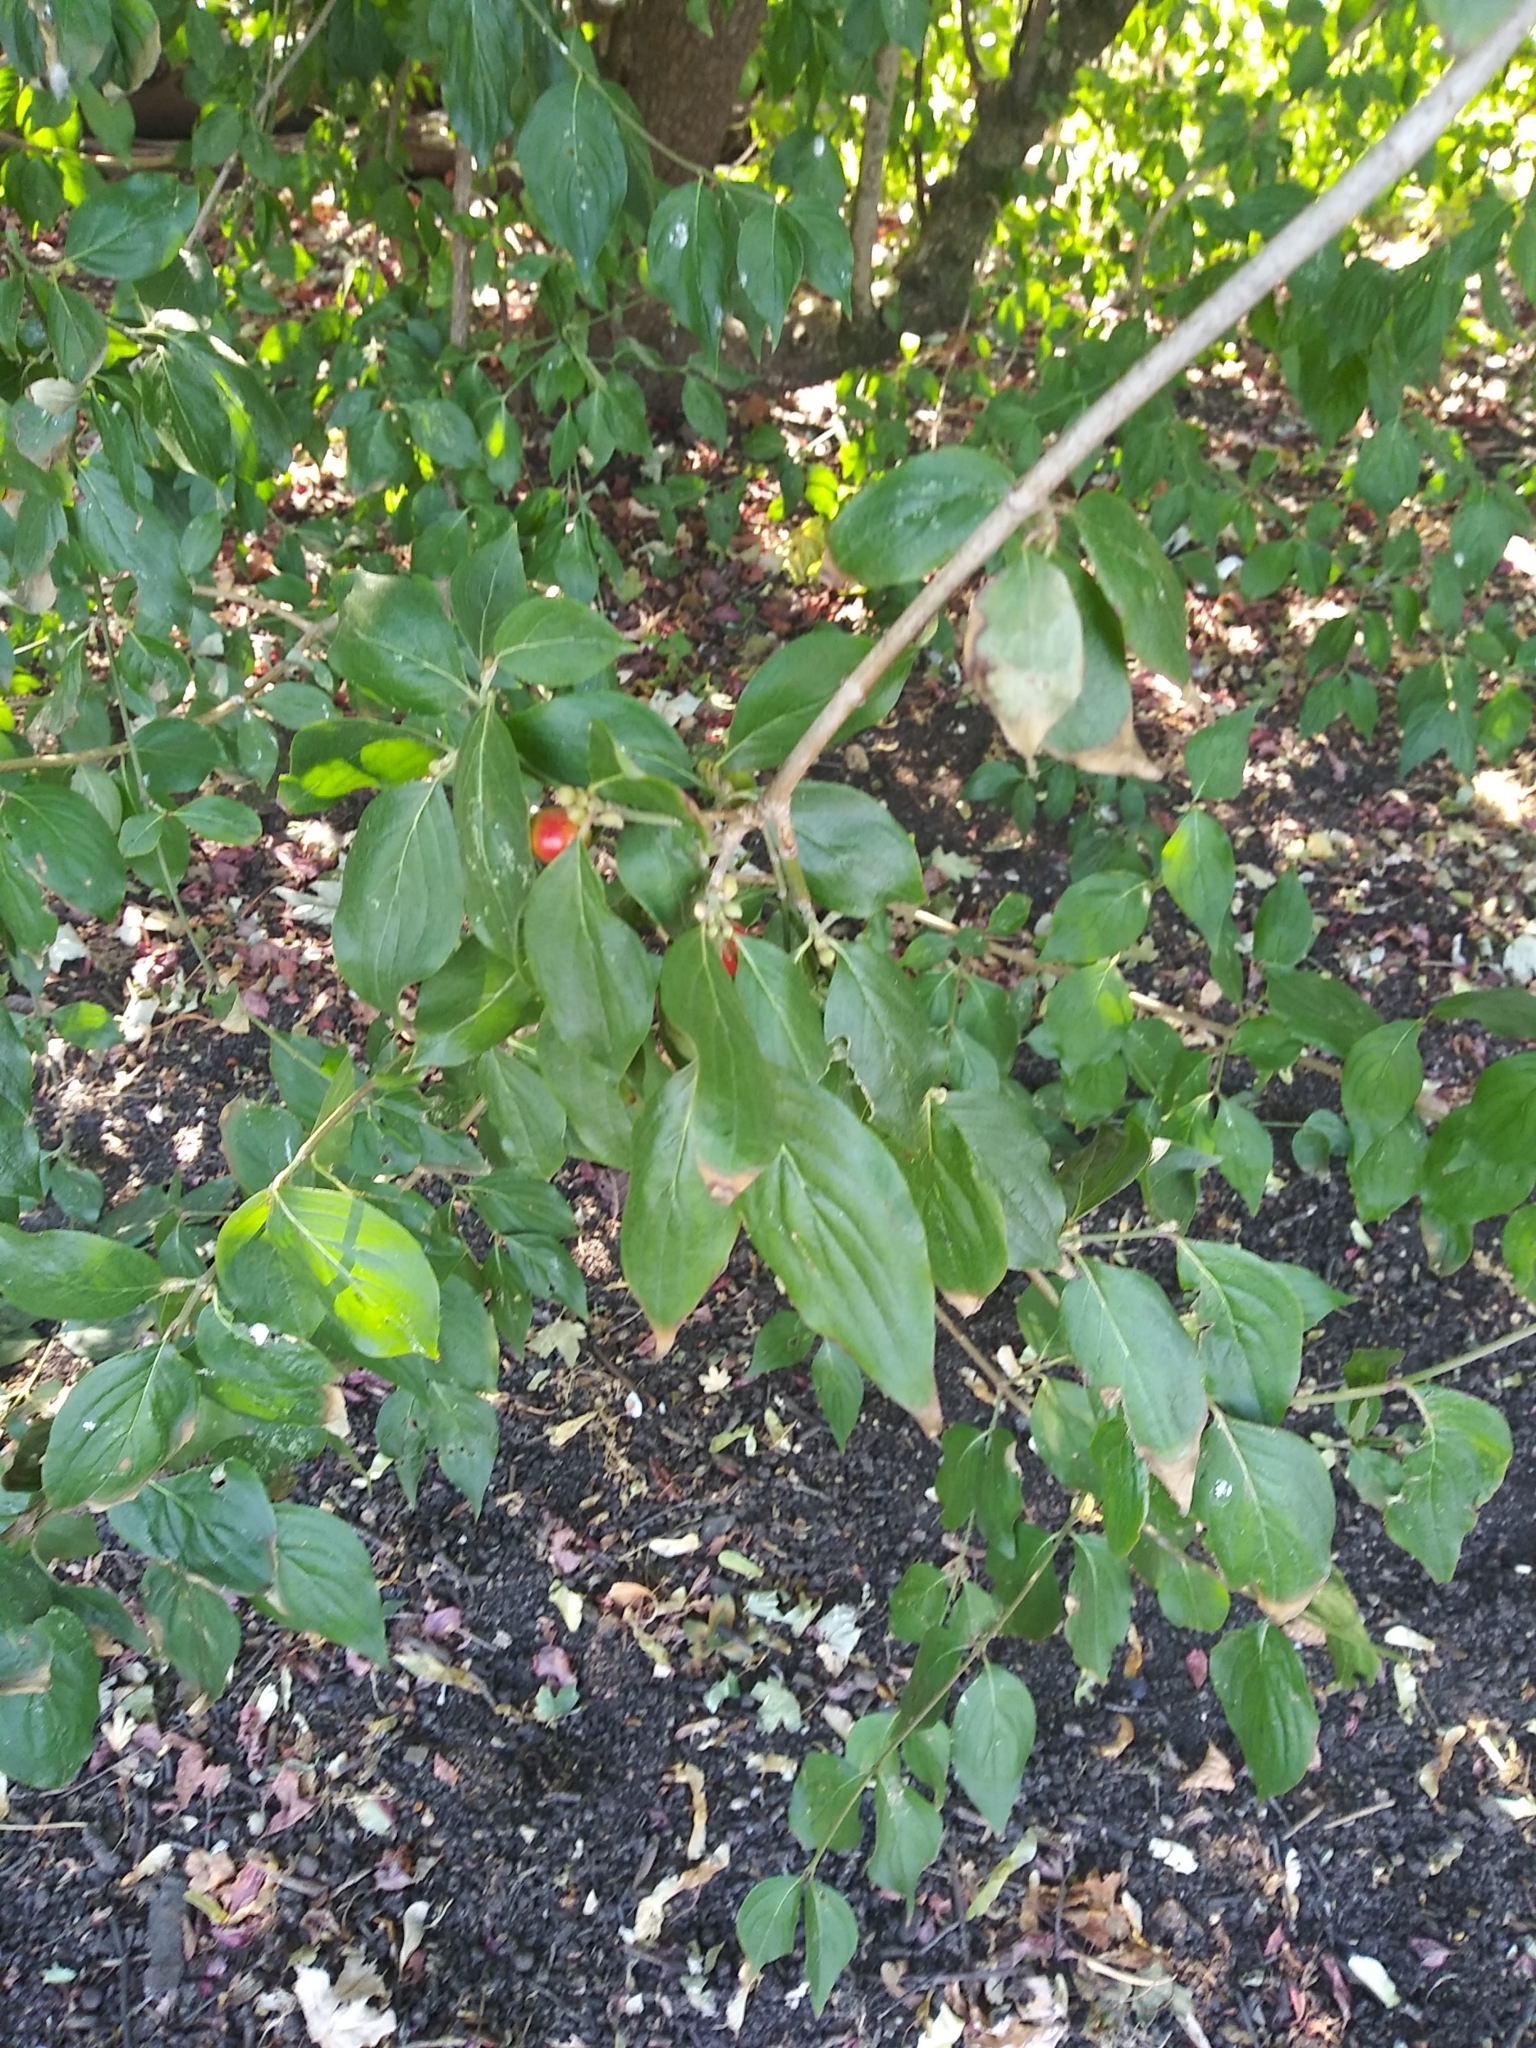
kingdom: Plantae
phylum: Tracheophyta
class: Magnoliopsida
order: Cornales
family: Cornaceae
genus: Cornus
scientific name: Cornus mas
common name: Cornelian-cherry
